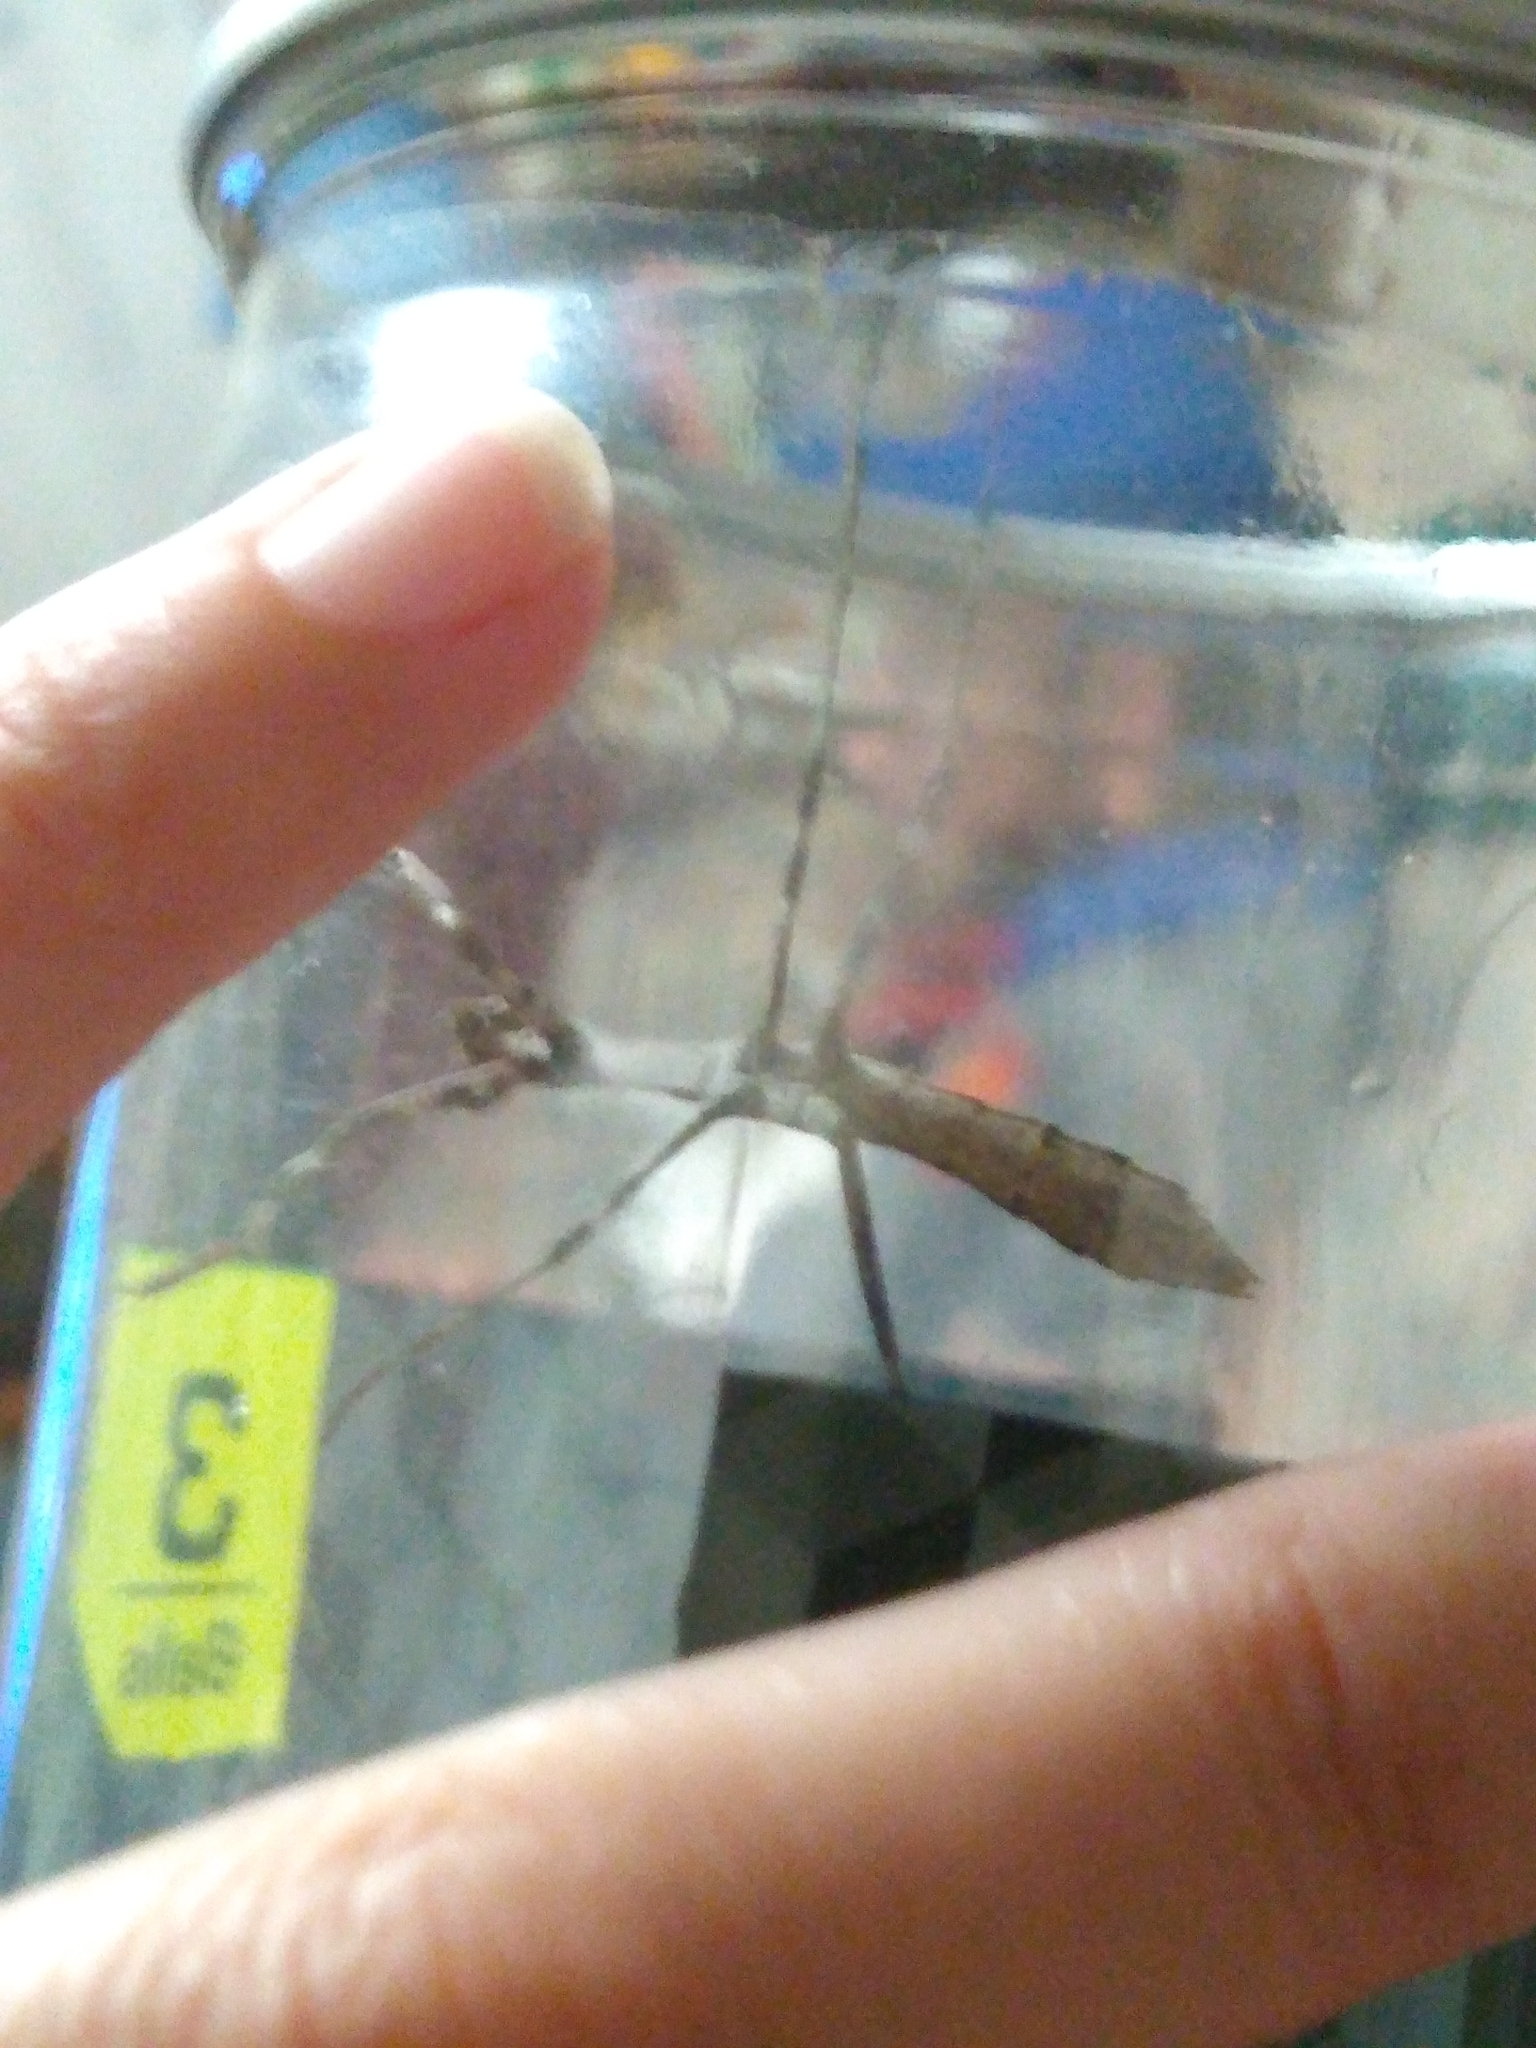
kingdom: Animalia
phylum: Arthropoda
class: Insecta
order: Mantodea
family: Mantidae
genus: Stagmomantis
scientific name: Stagmomantis carolina
